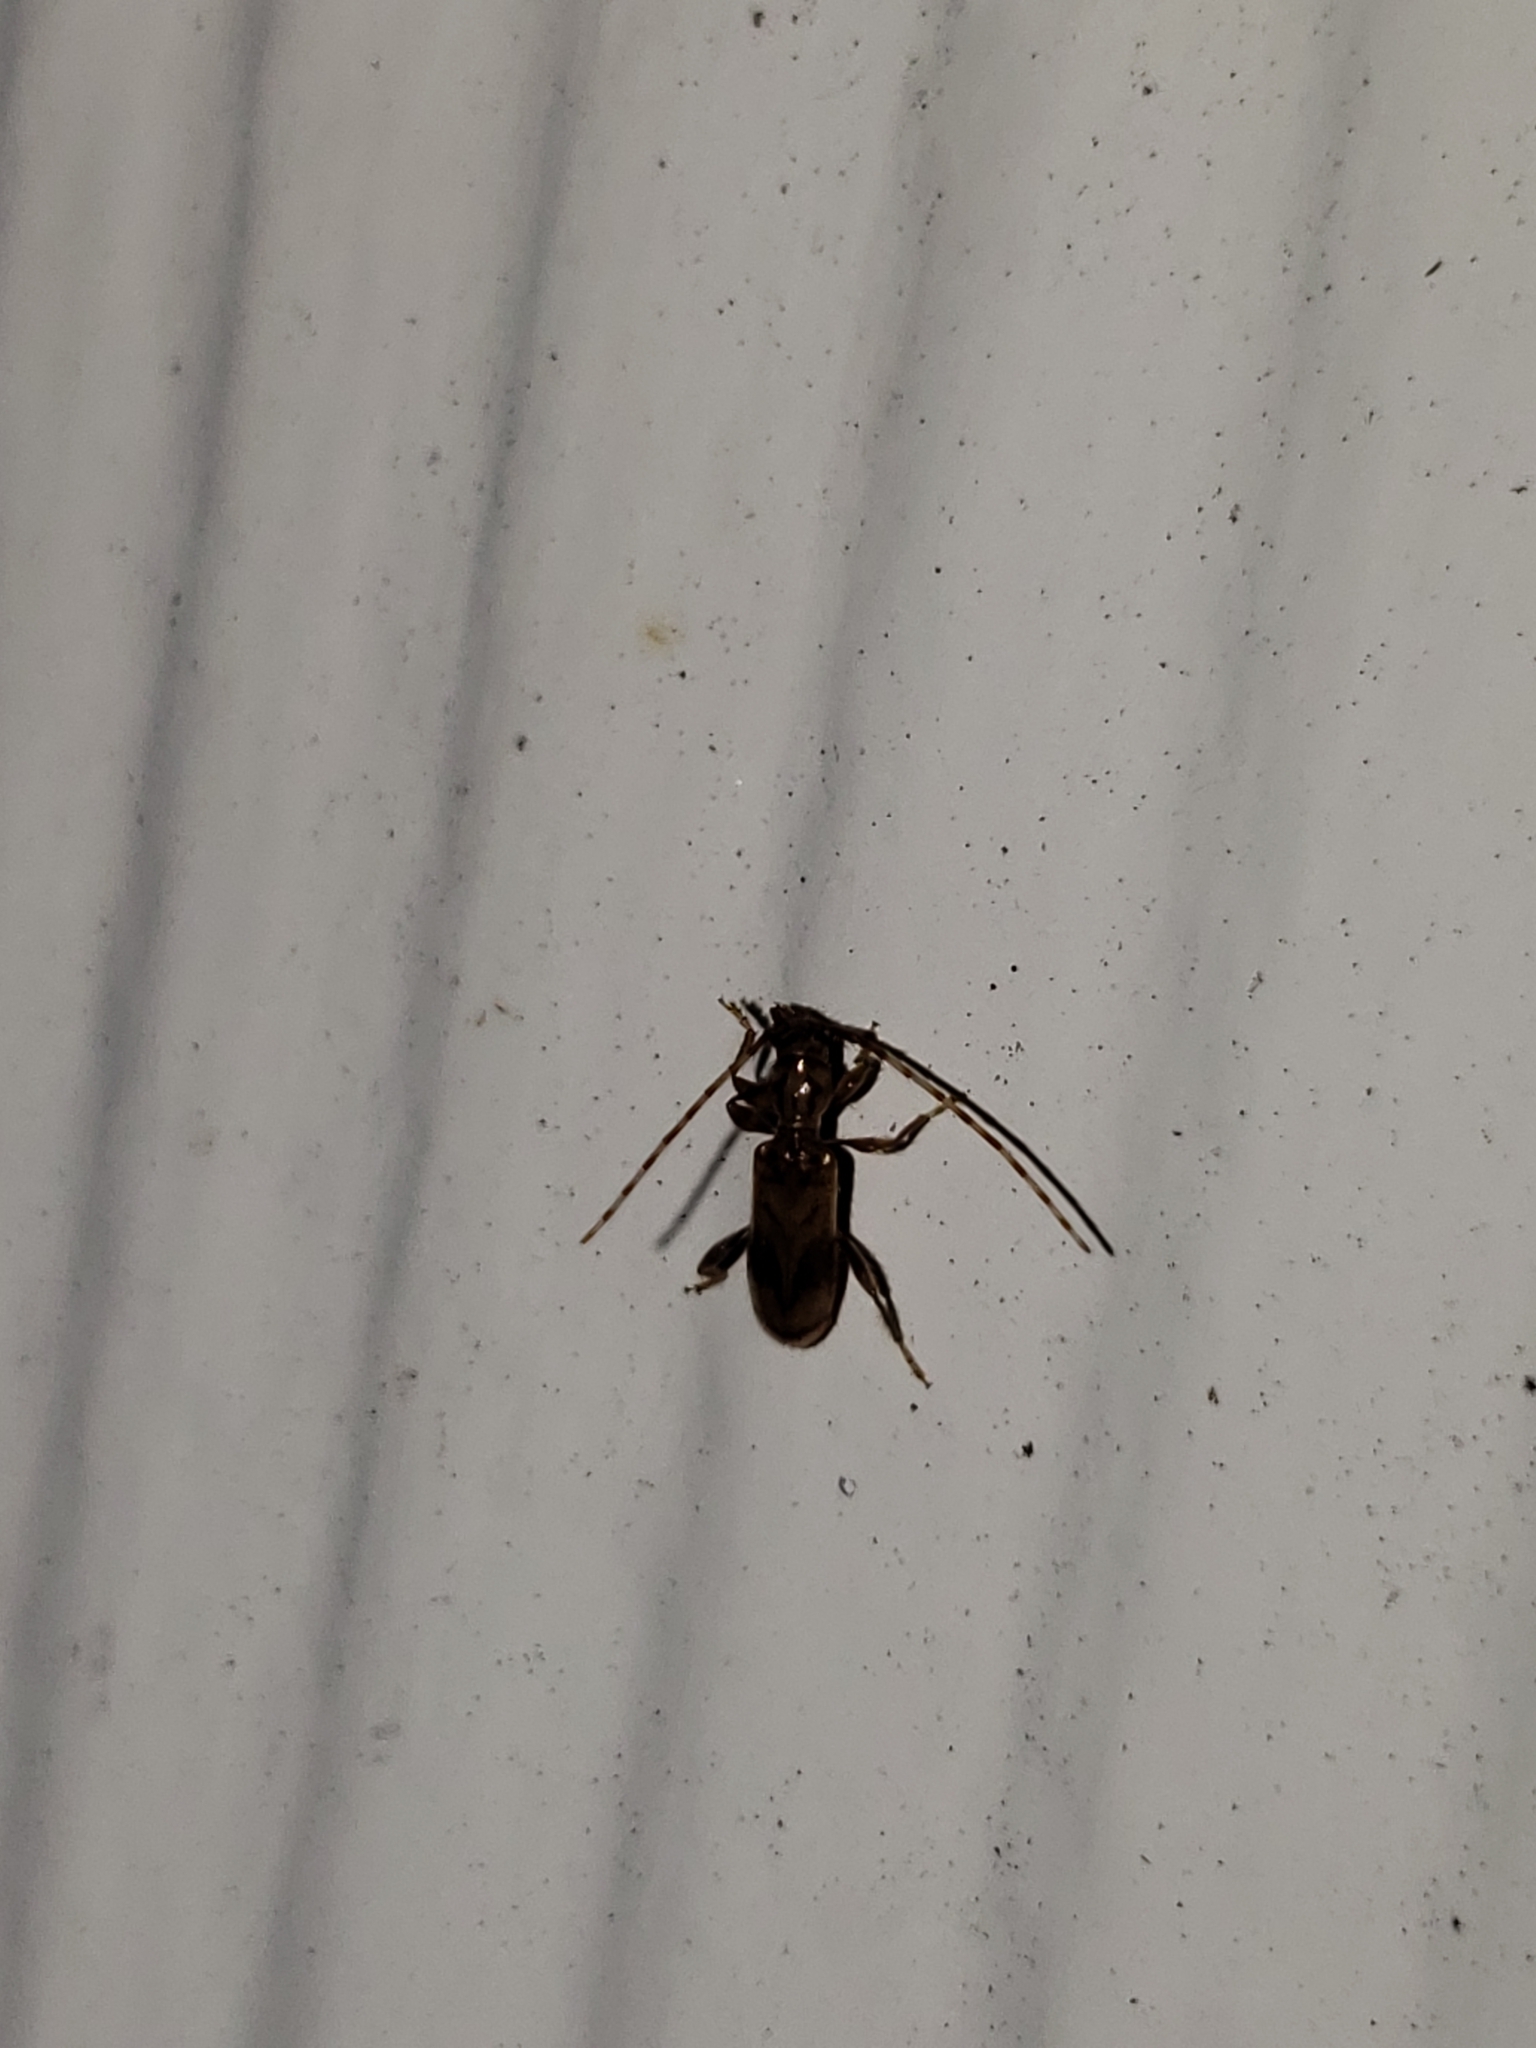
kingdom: Animalia
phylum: Arthropoda
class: Insecta
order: Coleoptera
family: Cerambycidae
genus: Obrium
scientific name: Obrium maculatum
